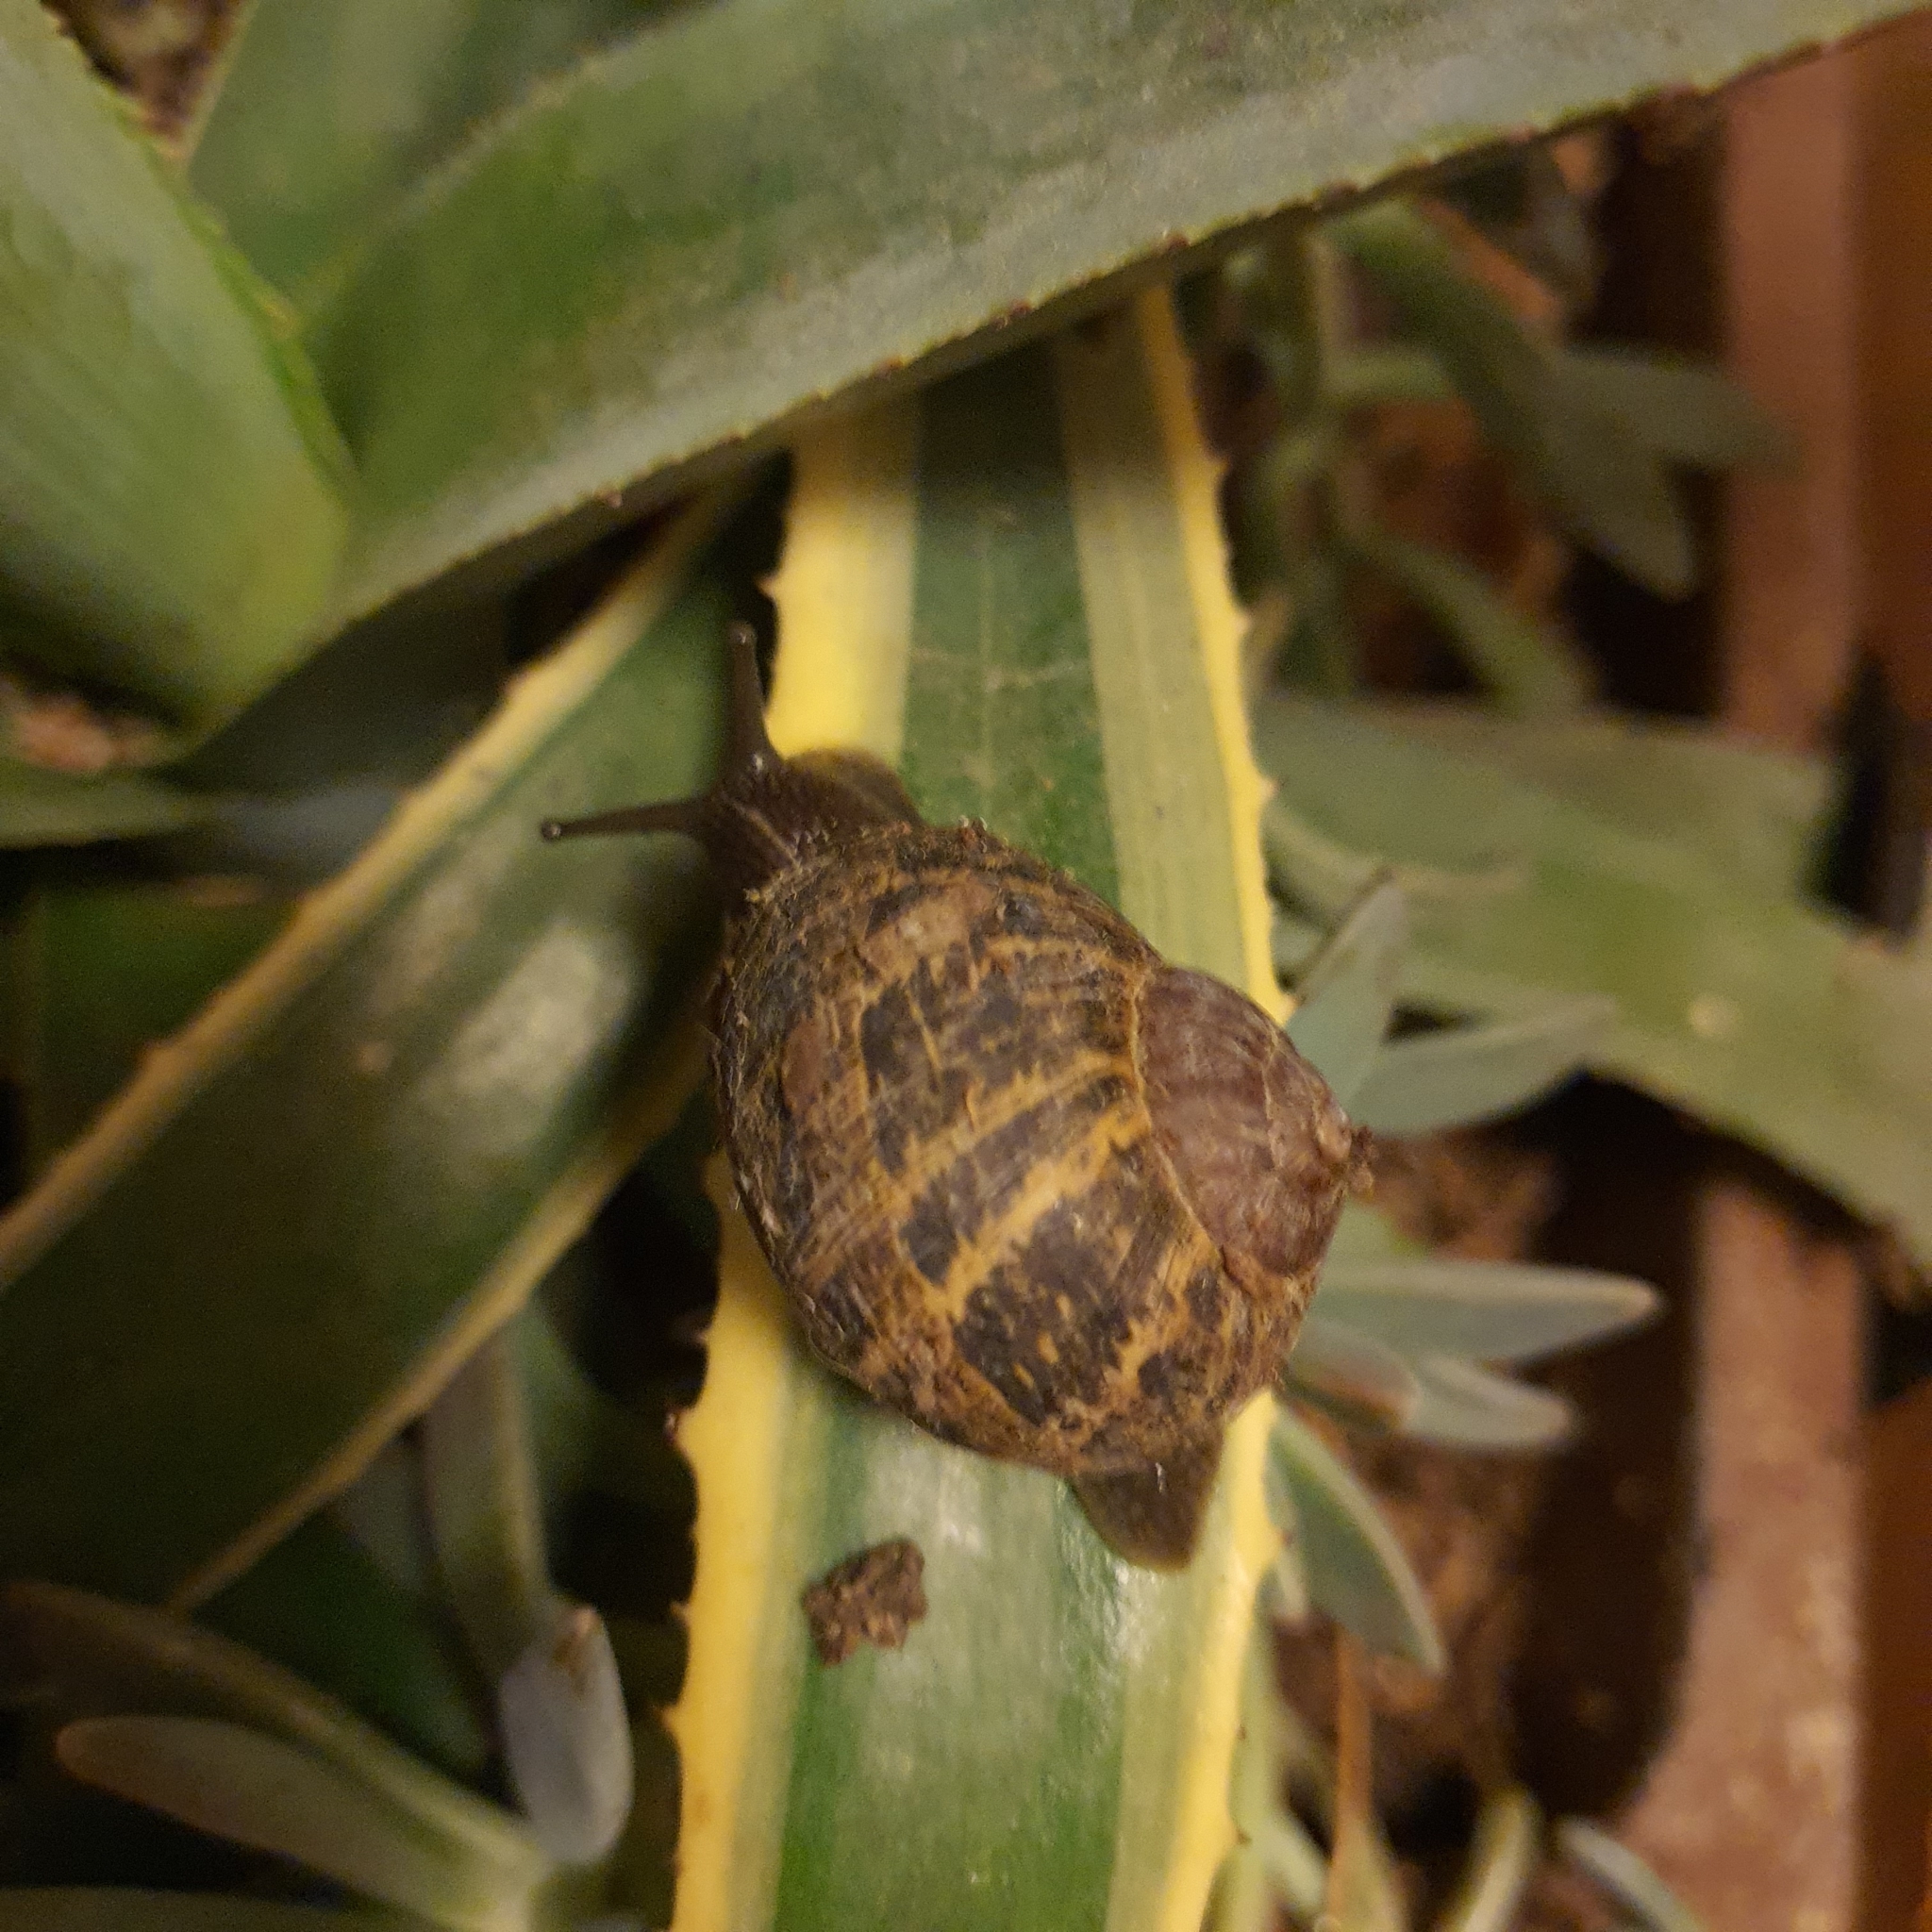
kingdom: Animalia
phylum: Mollusca
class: Gastropoda
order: Stylommatophora
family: Helicidae
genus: Cornu
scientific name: Cornu aspersum
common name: Brown garden snail
